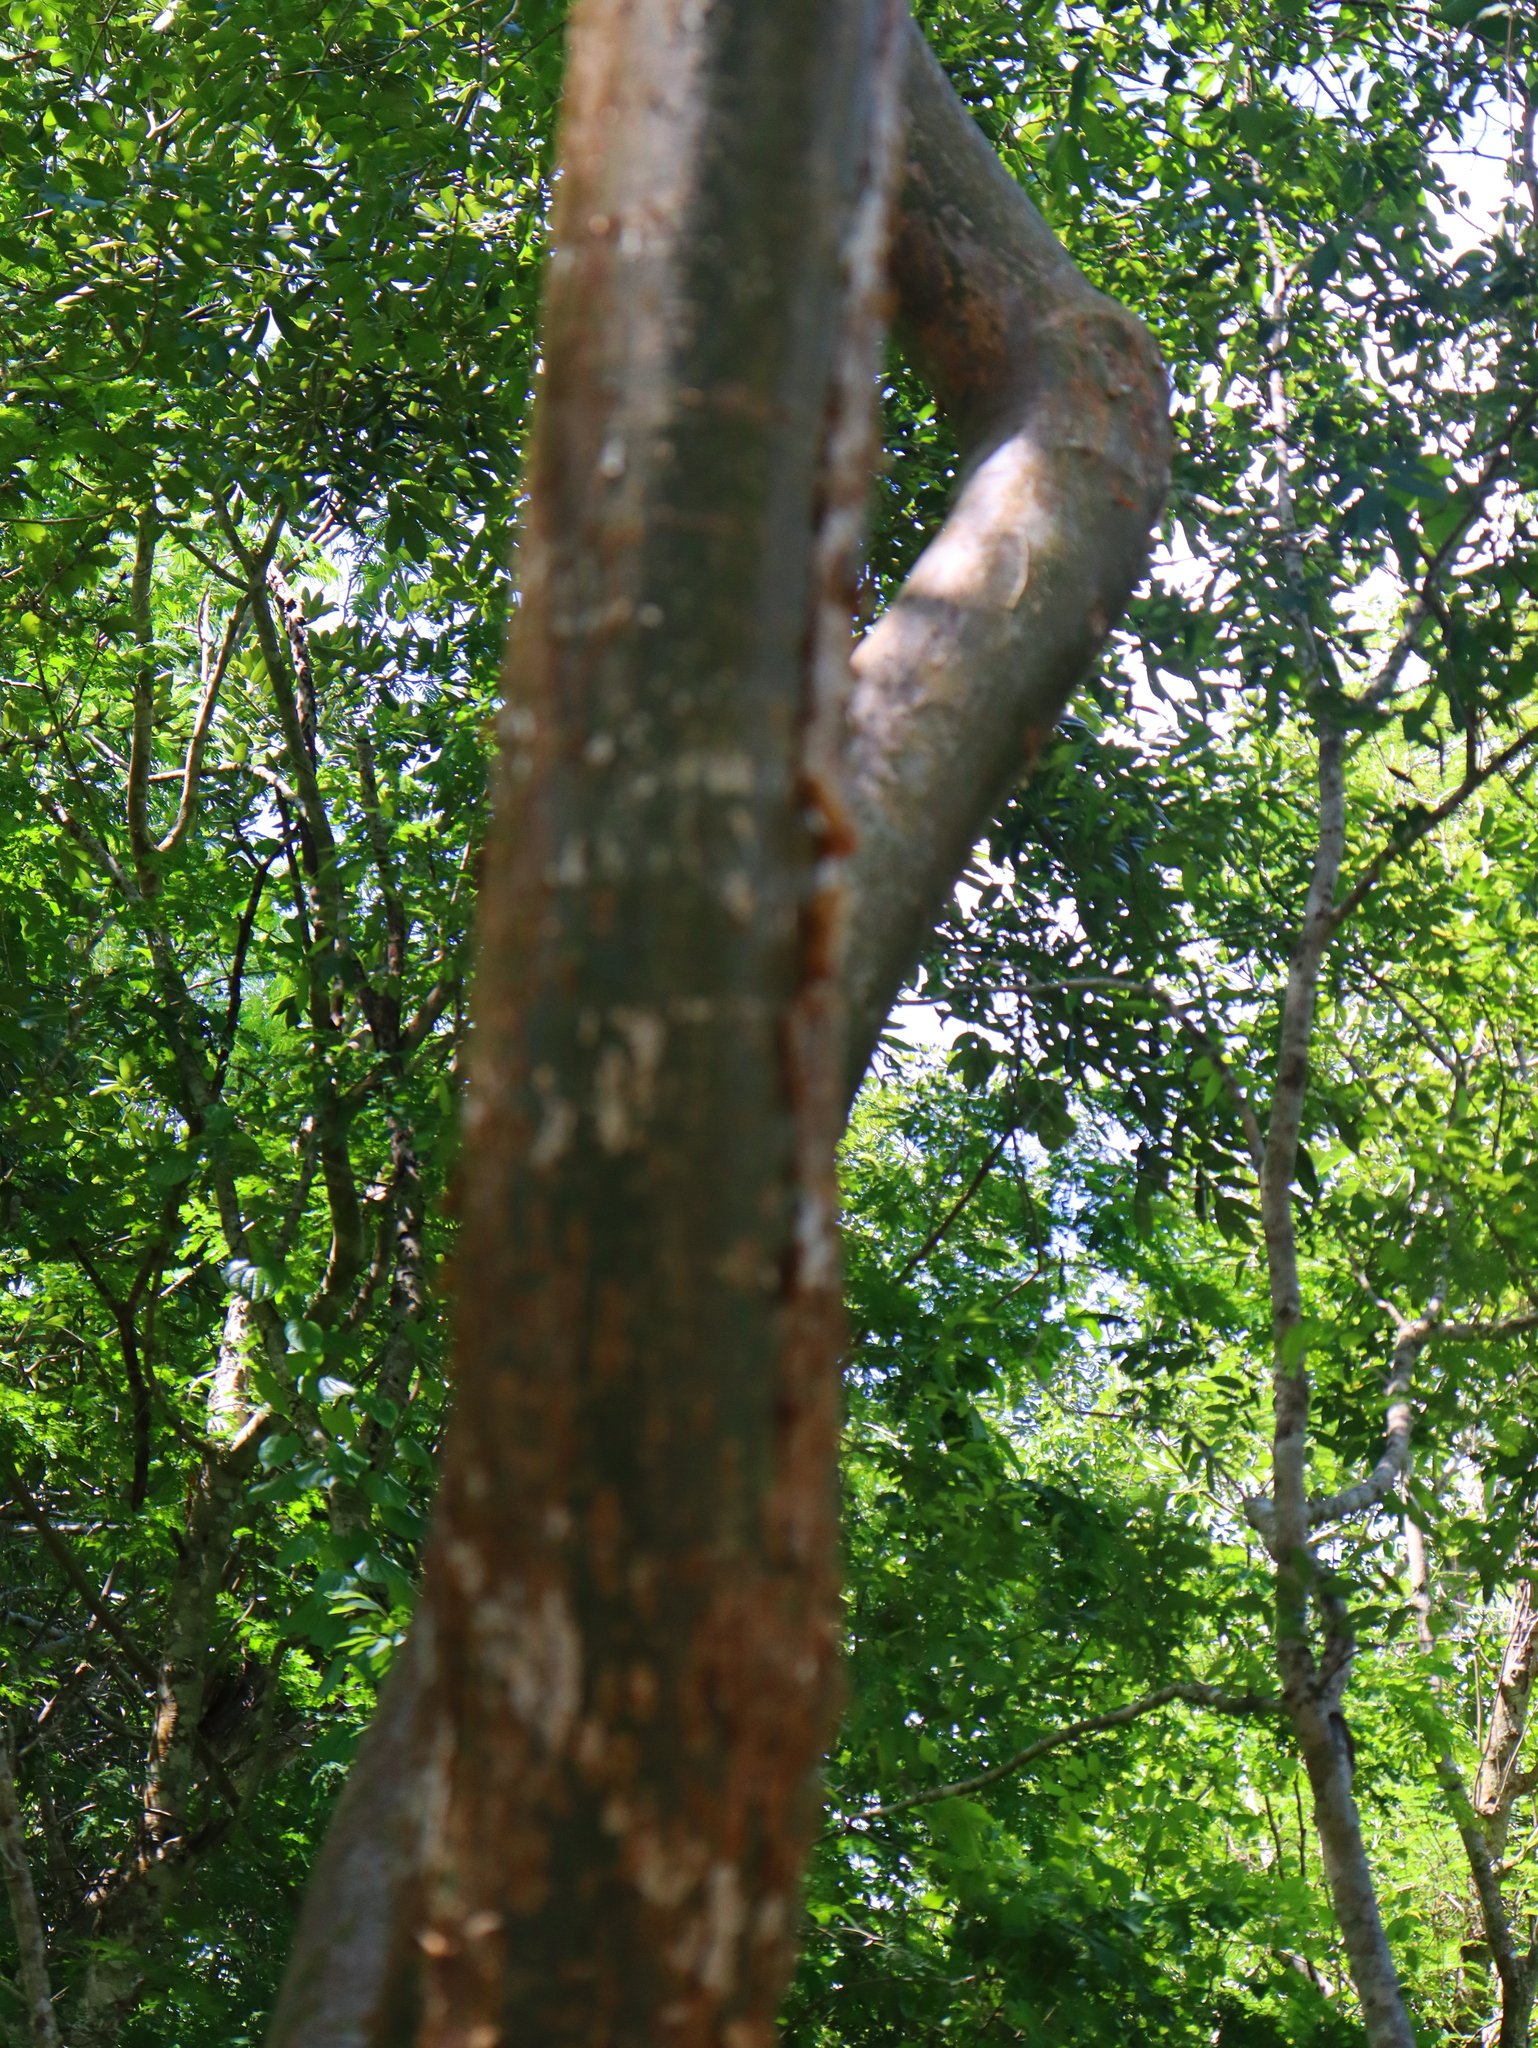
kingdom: Plantae
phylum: Tracheophyta
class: Magnoliopsida
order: Sapindales
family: Burseraceae
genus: Bursera
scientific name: Bursera simaruba
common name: Turpentine tree
